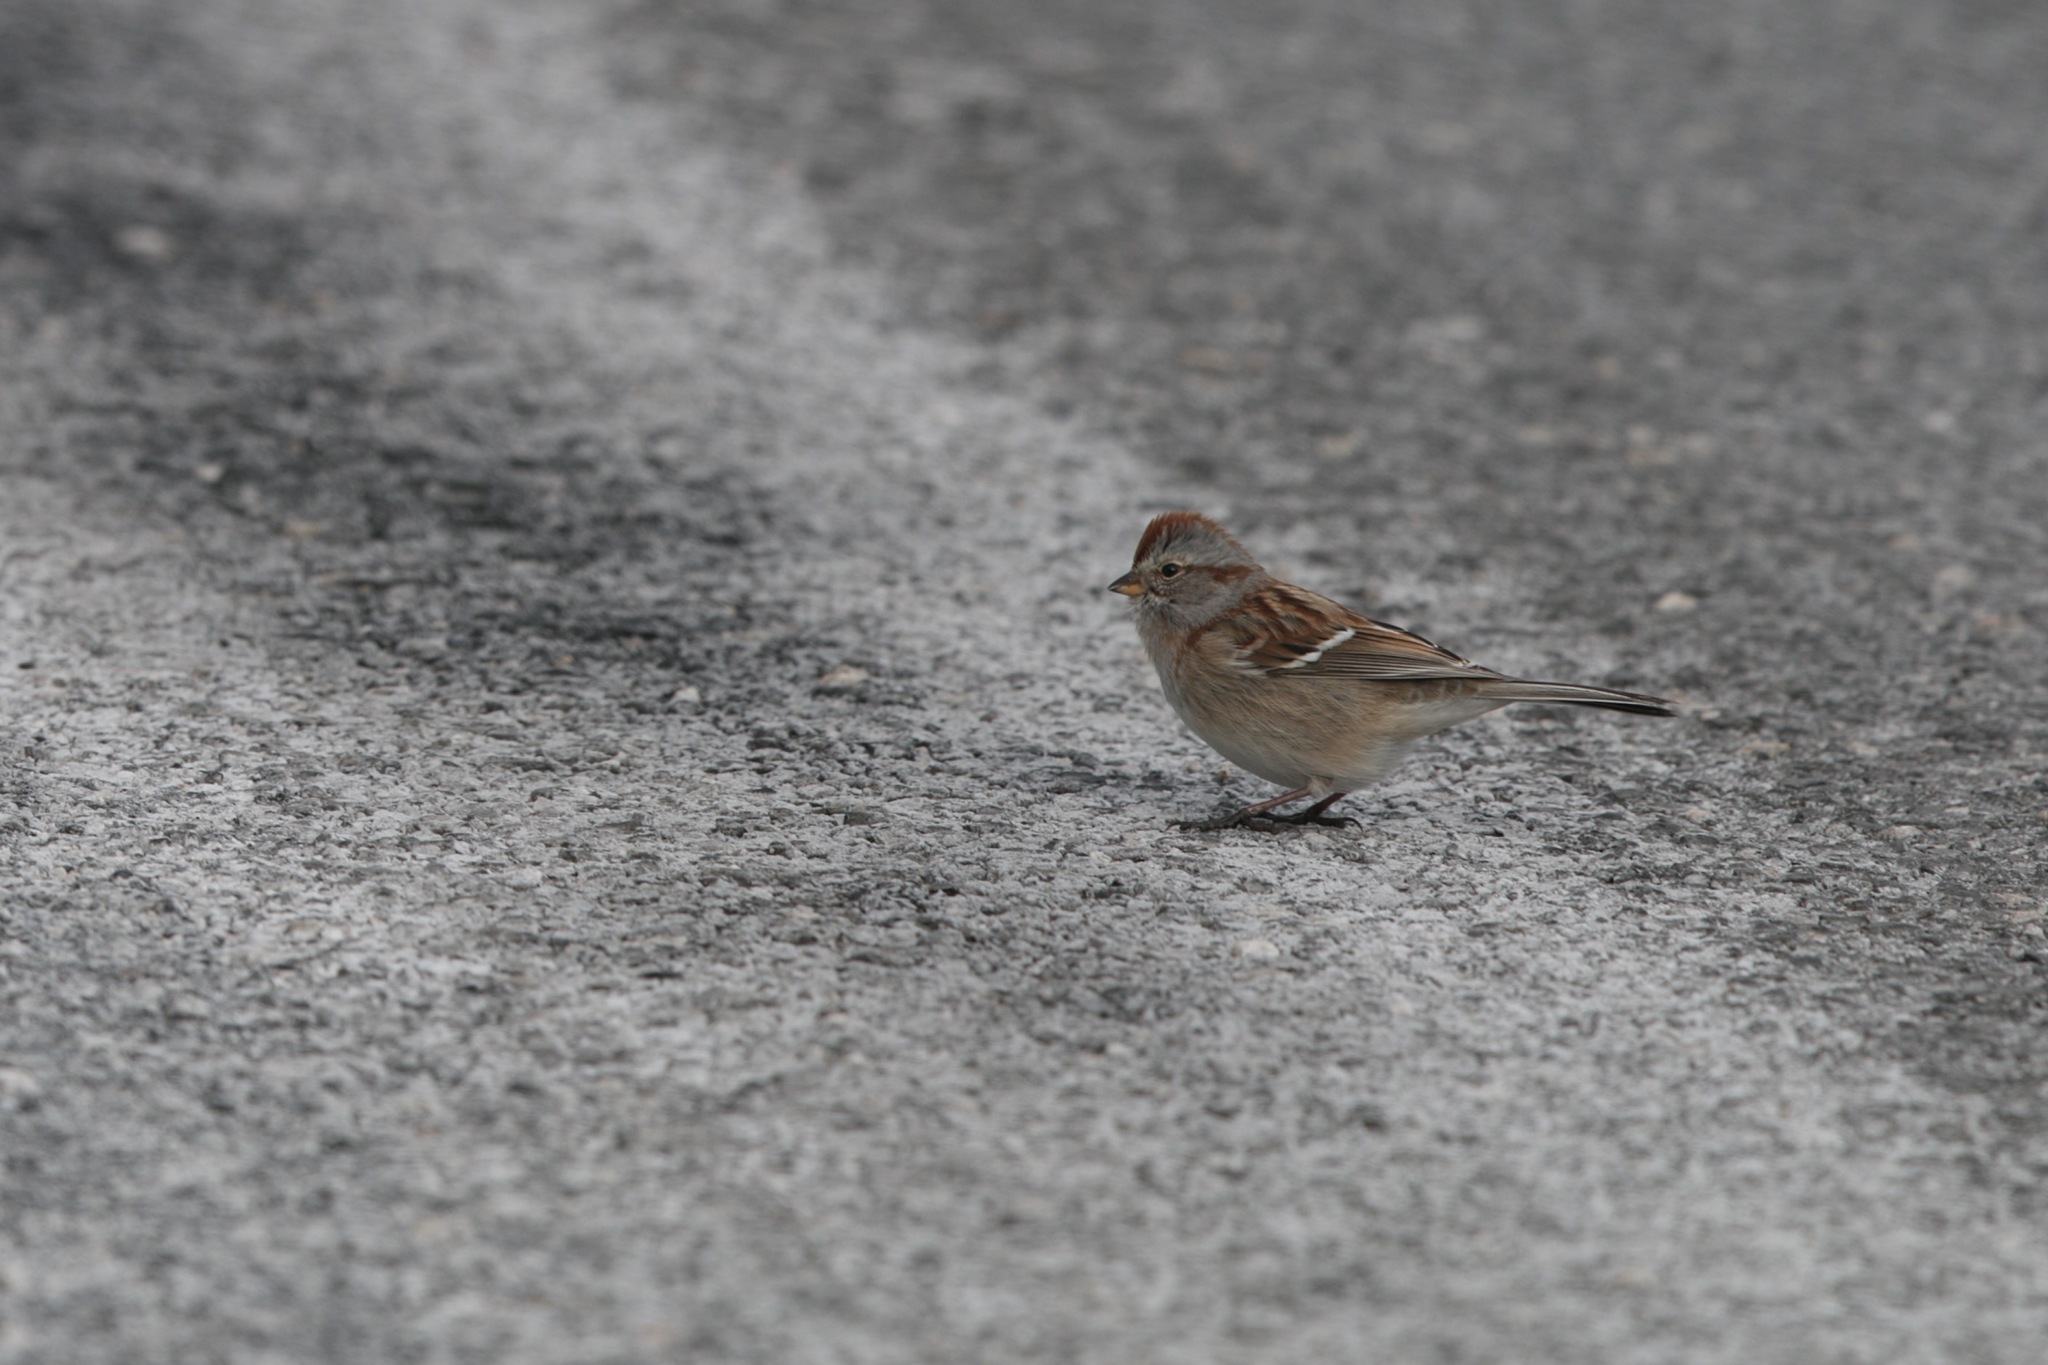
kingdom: Animalia
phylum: Chordata
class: Aves
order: Passeriformes
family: Passerellidae
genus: Spizelloides
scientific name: Spizelloides arborea
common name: American tree sparrow
